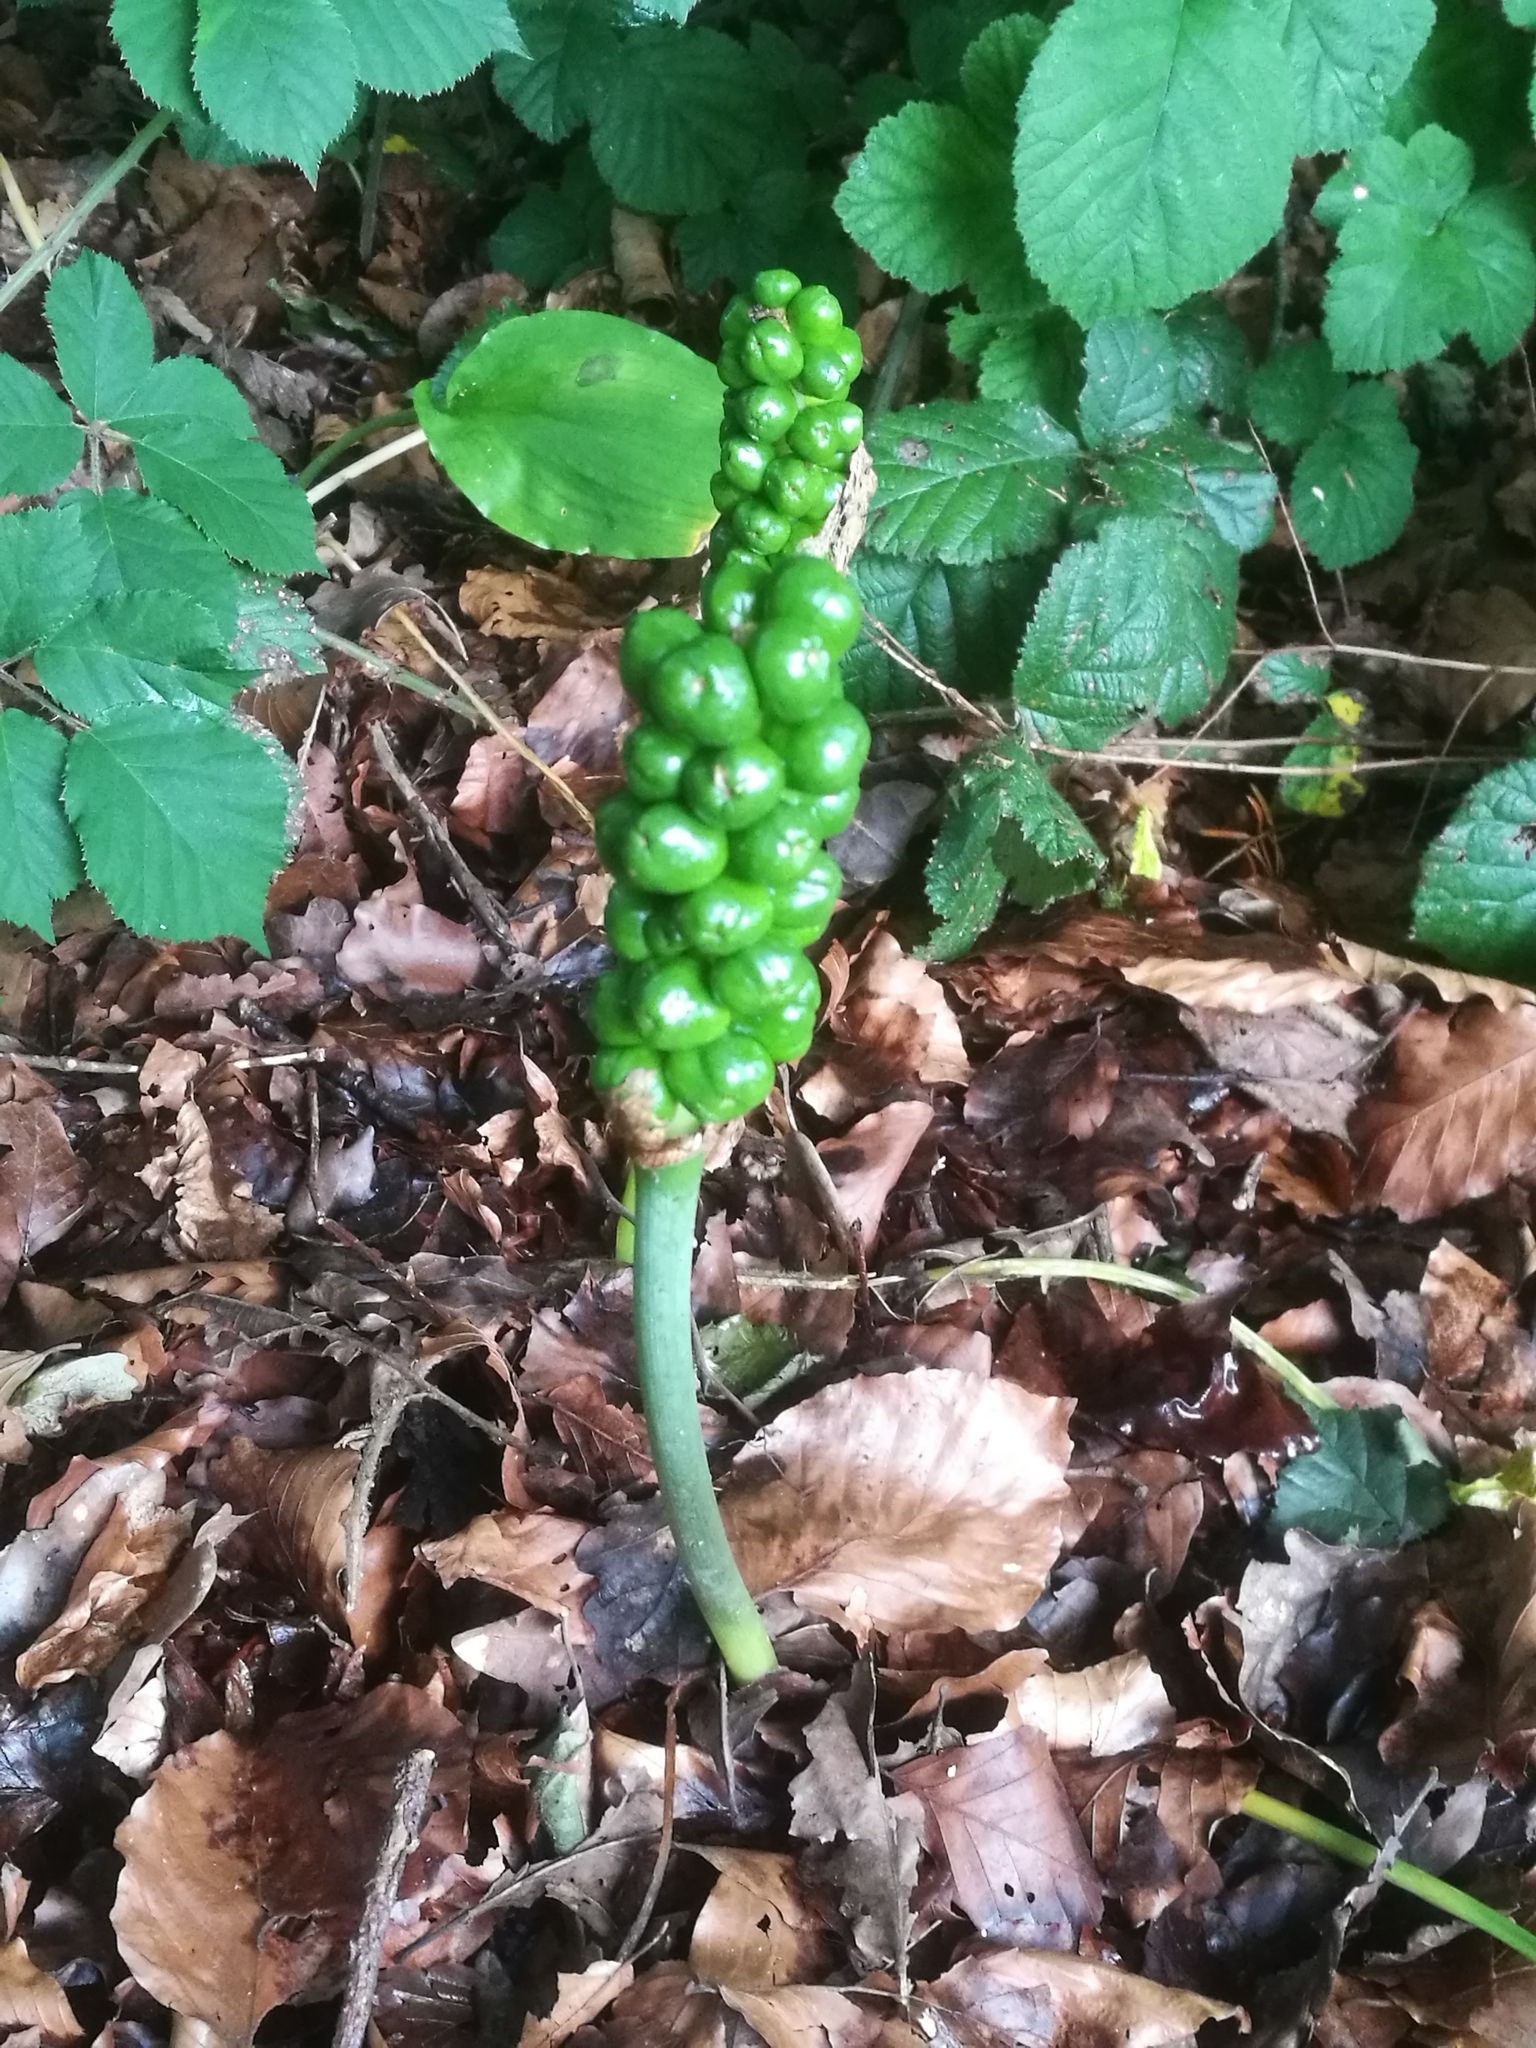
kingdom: Plantae
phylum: Tracheophyta
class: Liliopsida
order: Alismatales
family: Araceae
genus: Arum
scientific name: Arum maculatum
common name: Lords-and-ladies
